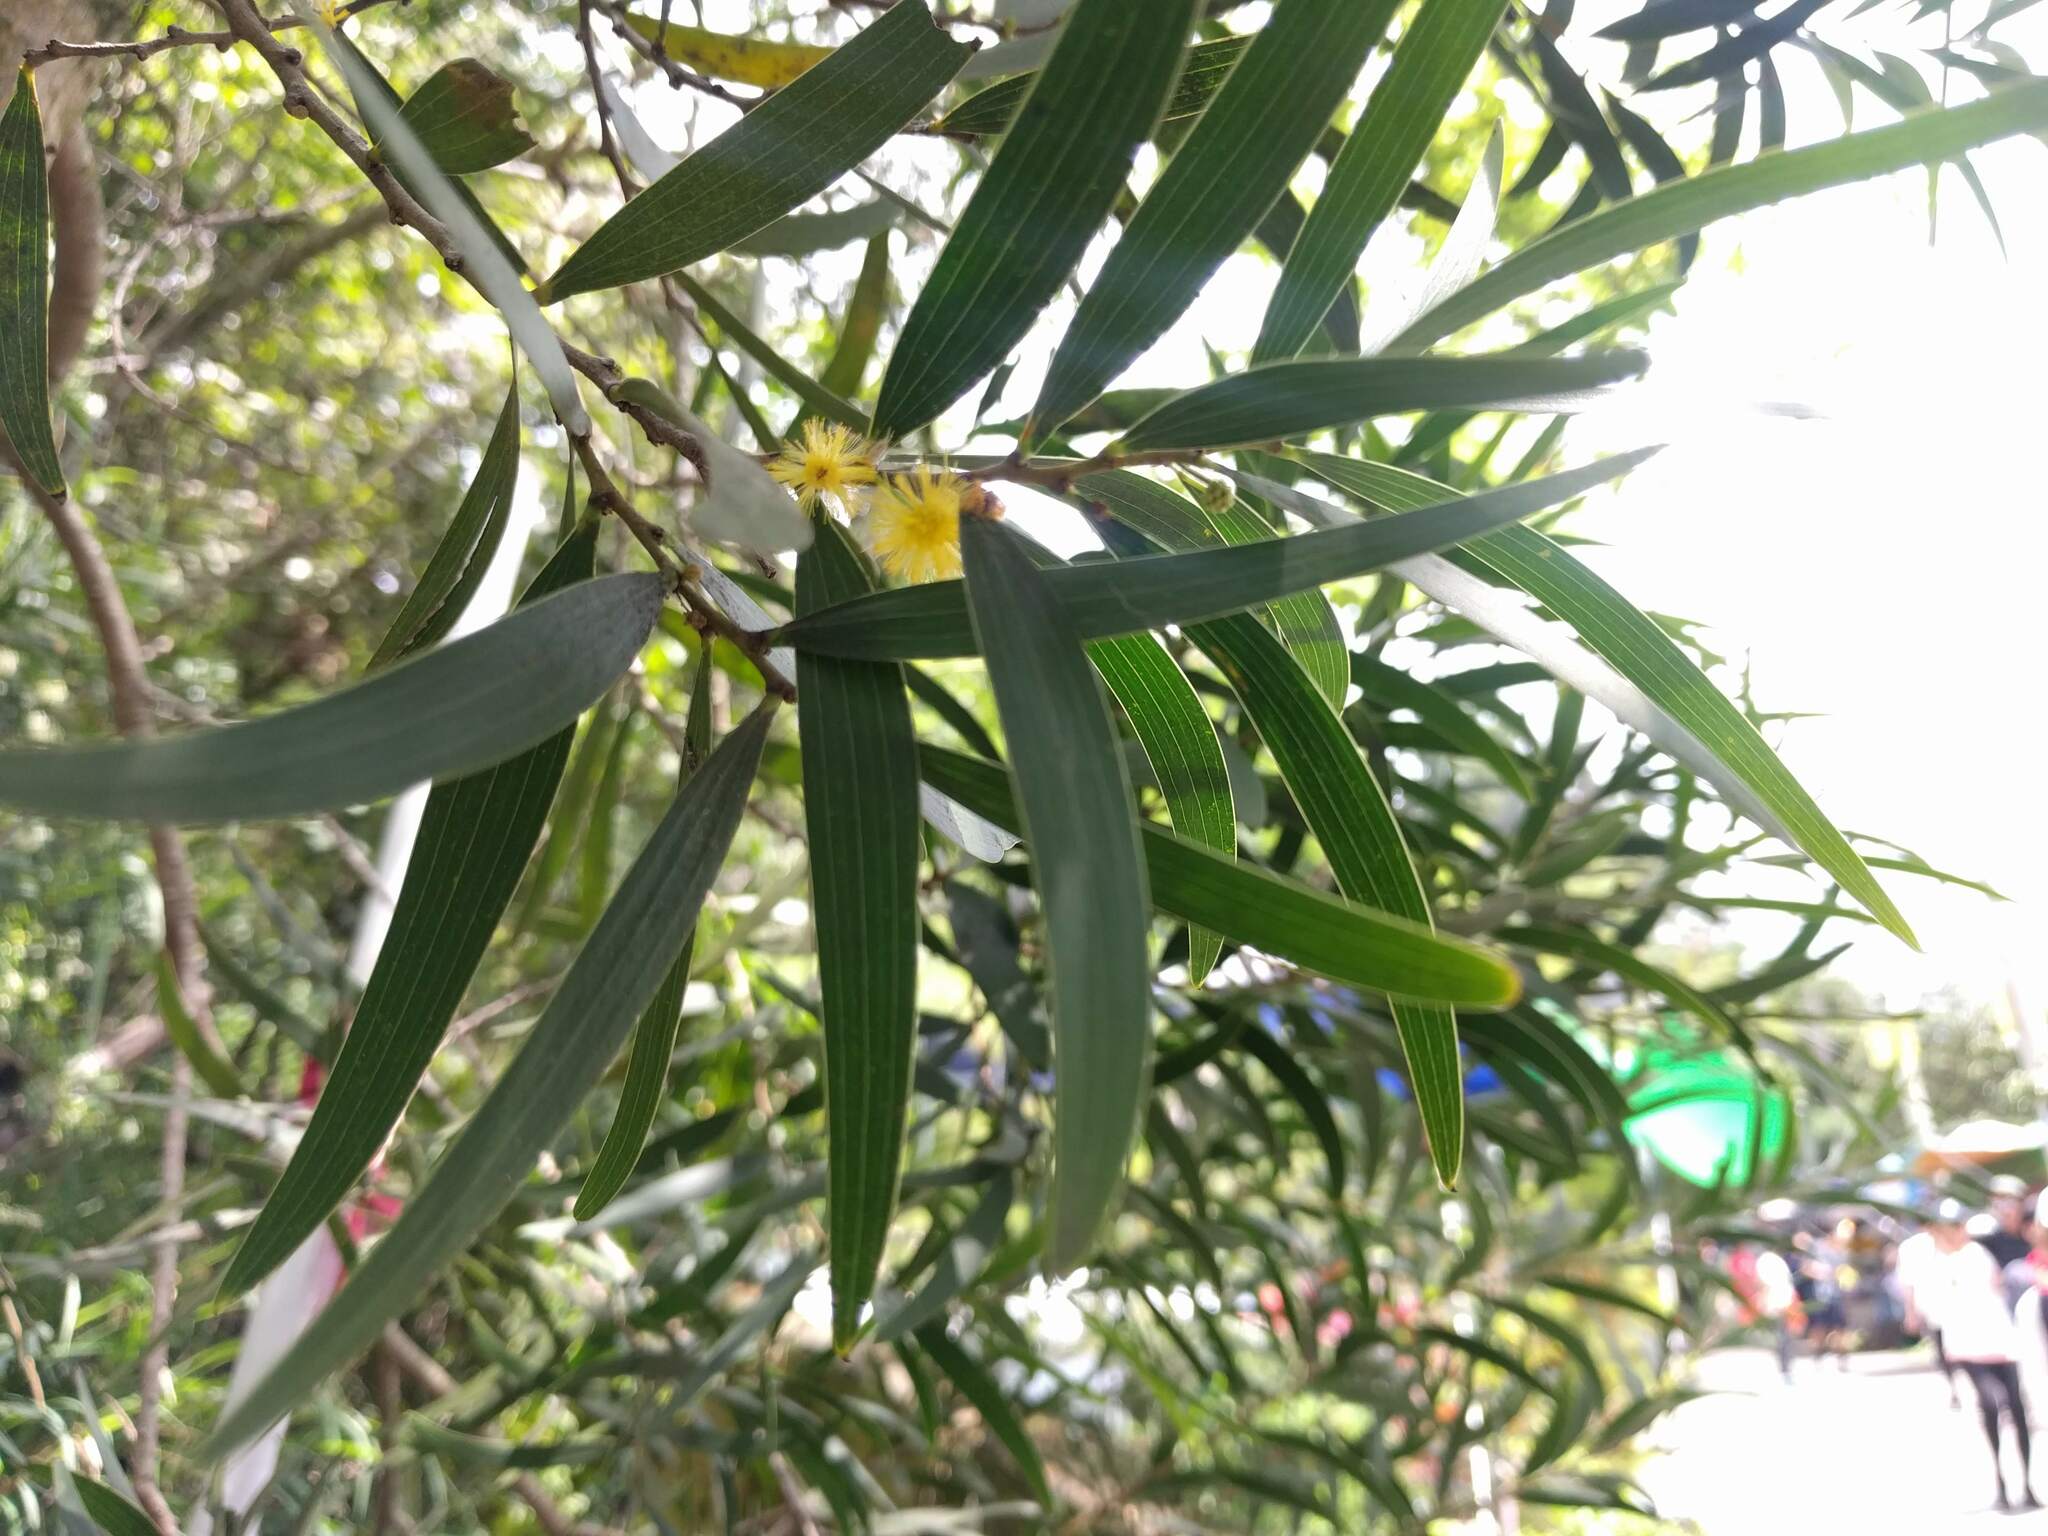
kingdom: Plantae
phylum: Tracheophyta
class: Magnoliopsida
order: Fabales
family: Fabaceae
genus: Acacia
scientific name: Acacia confusa
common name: Formosan koa
